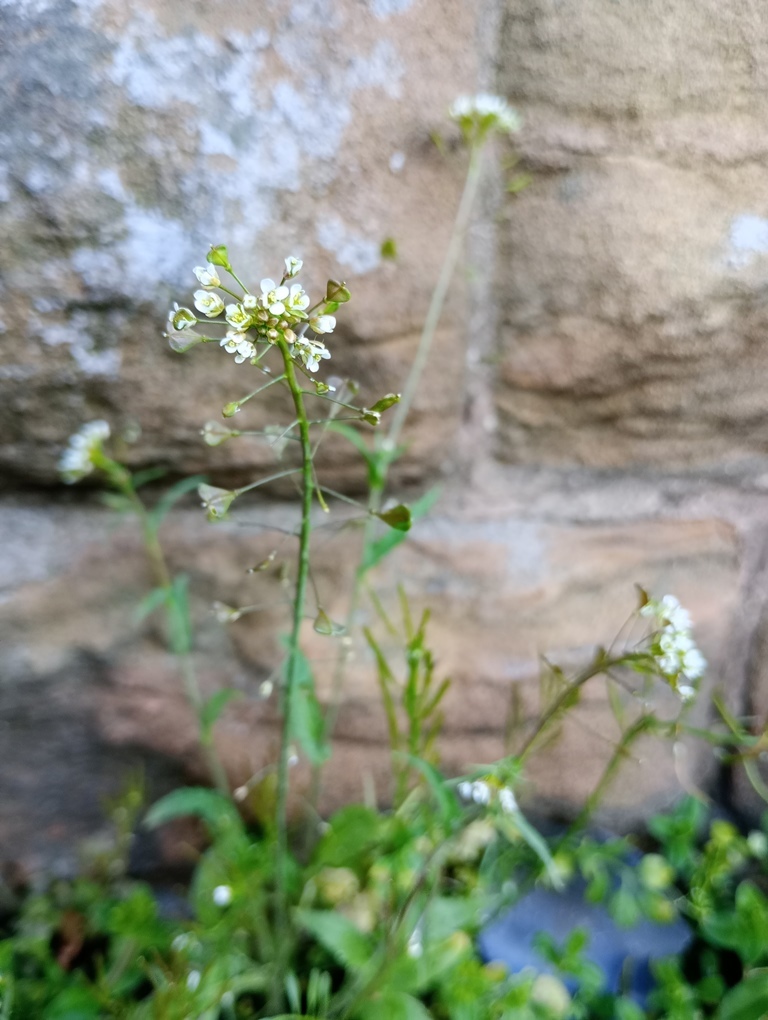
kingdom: Plantae
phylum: Tracheophyta
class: Magnoliopsida
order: Brassicales
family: Brassicaceae
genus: Capsella
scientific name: Capsella bursa-pastoris
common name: Shepherd's purse
